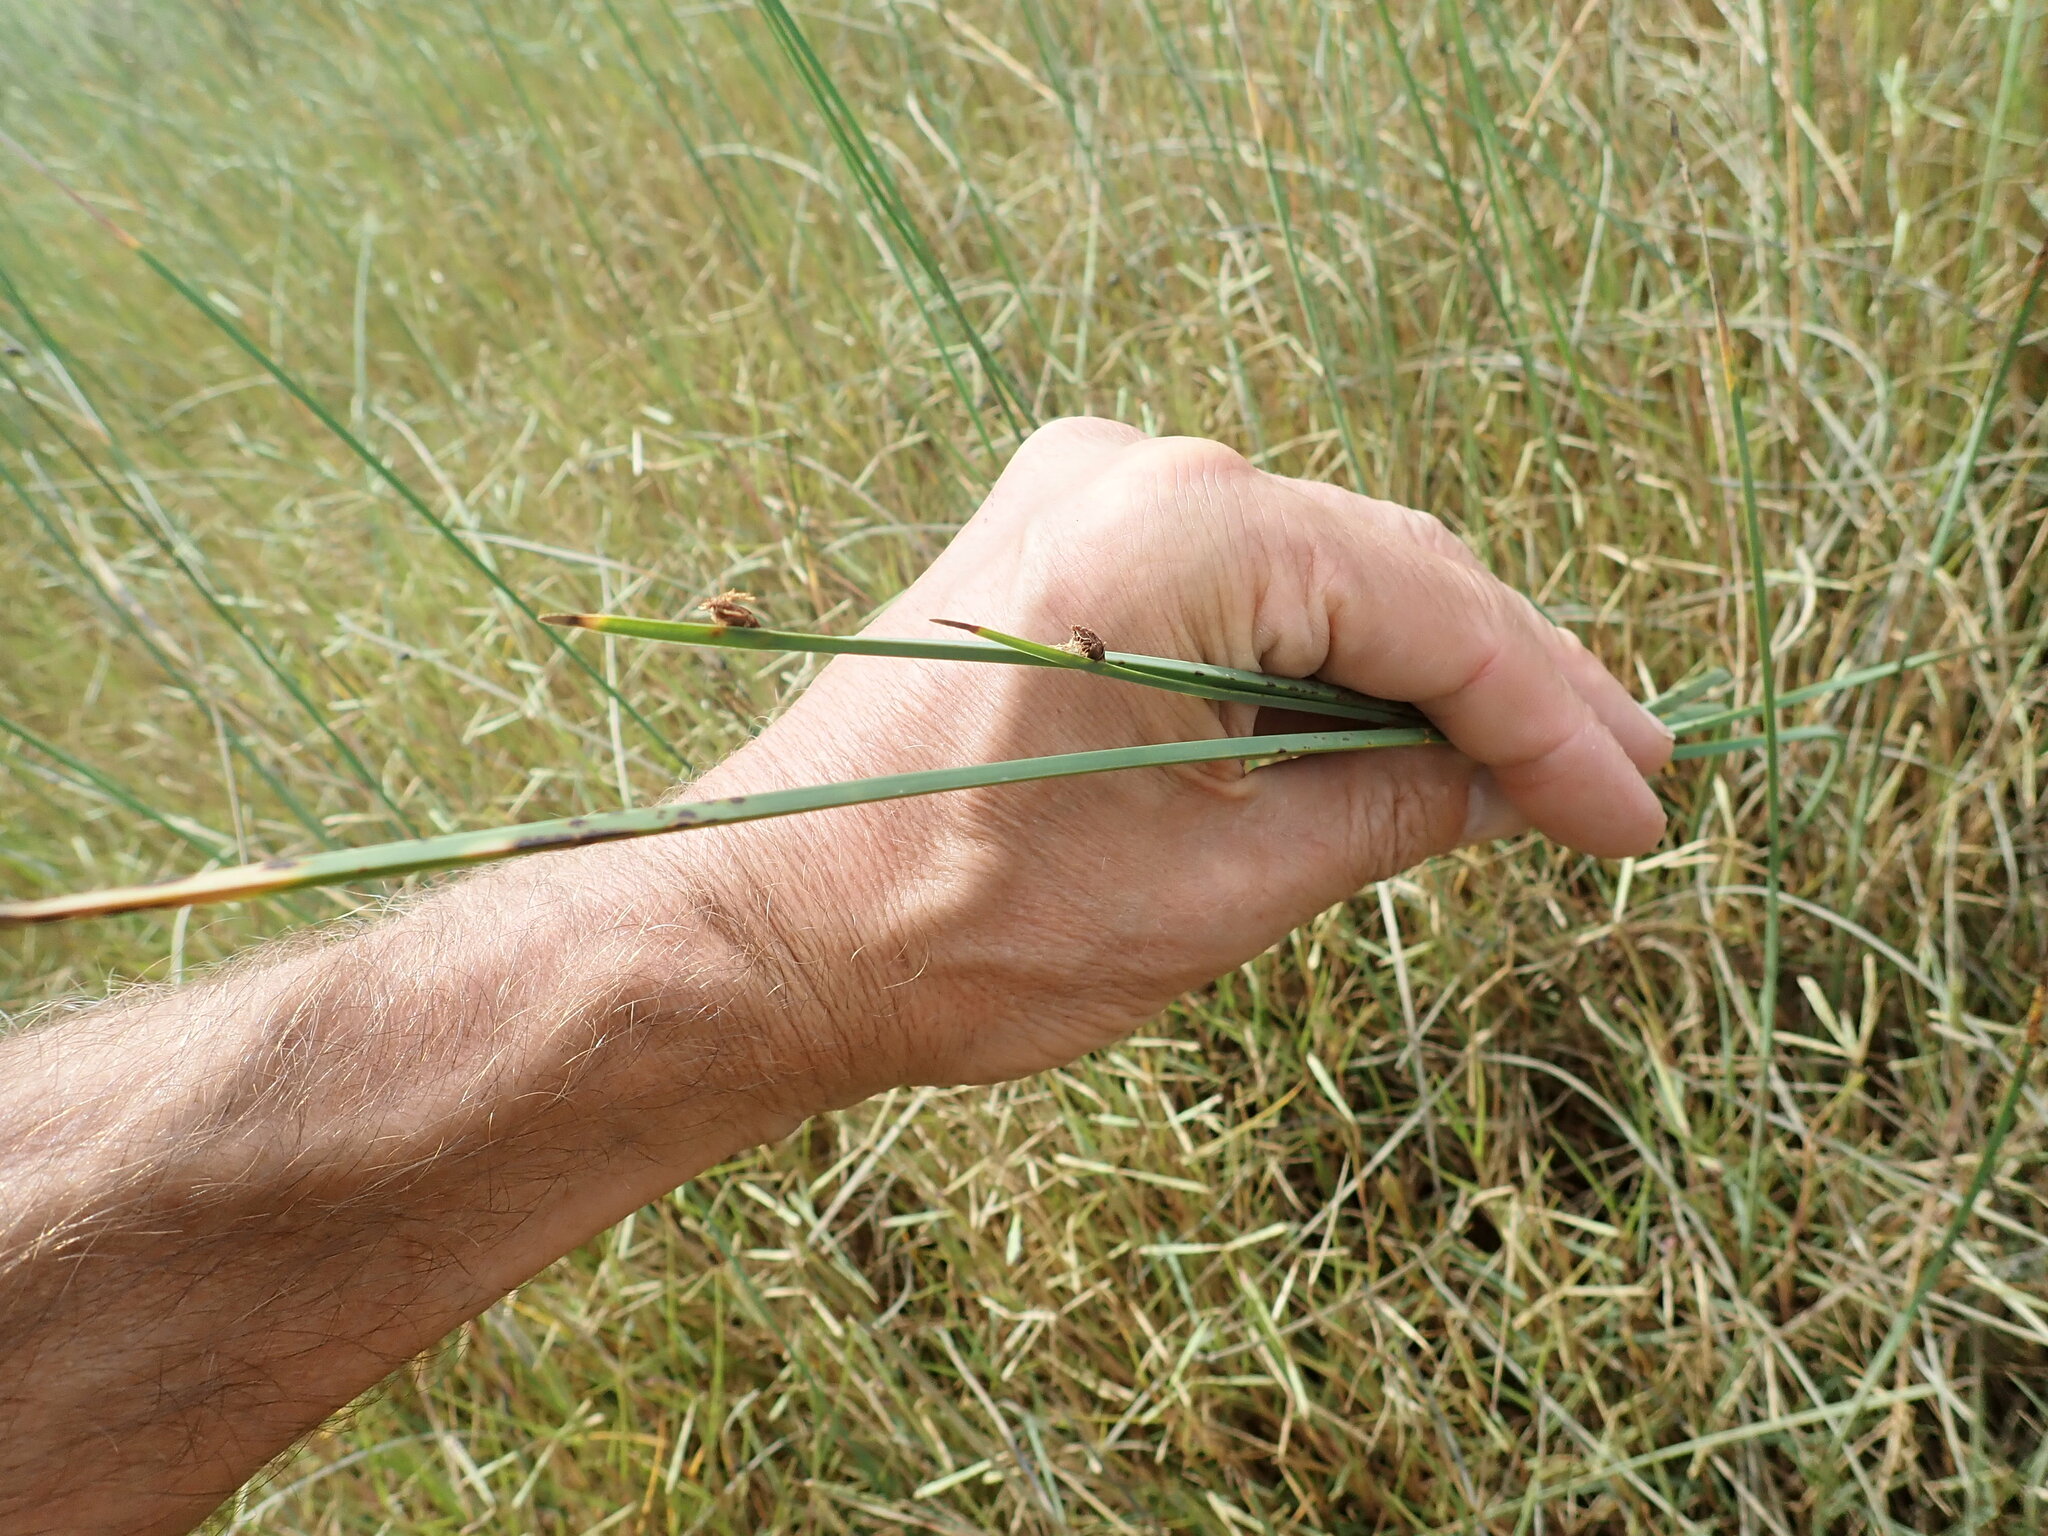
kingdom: Plantae
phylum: Tracheophyta
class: Liliopsida
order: Poales
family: Cyperaceae
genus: Schoenoplectus
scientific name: Schoenoplectus pungens
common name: Sharp club-rush
